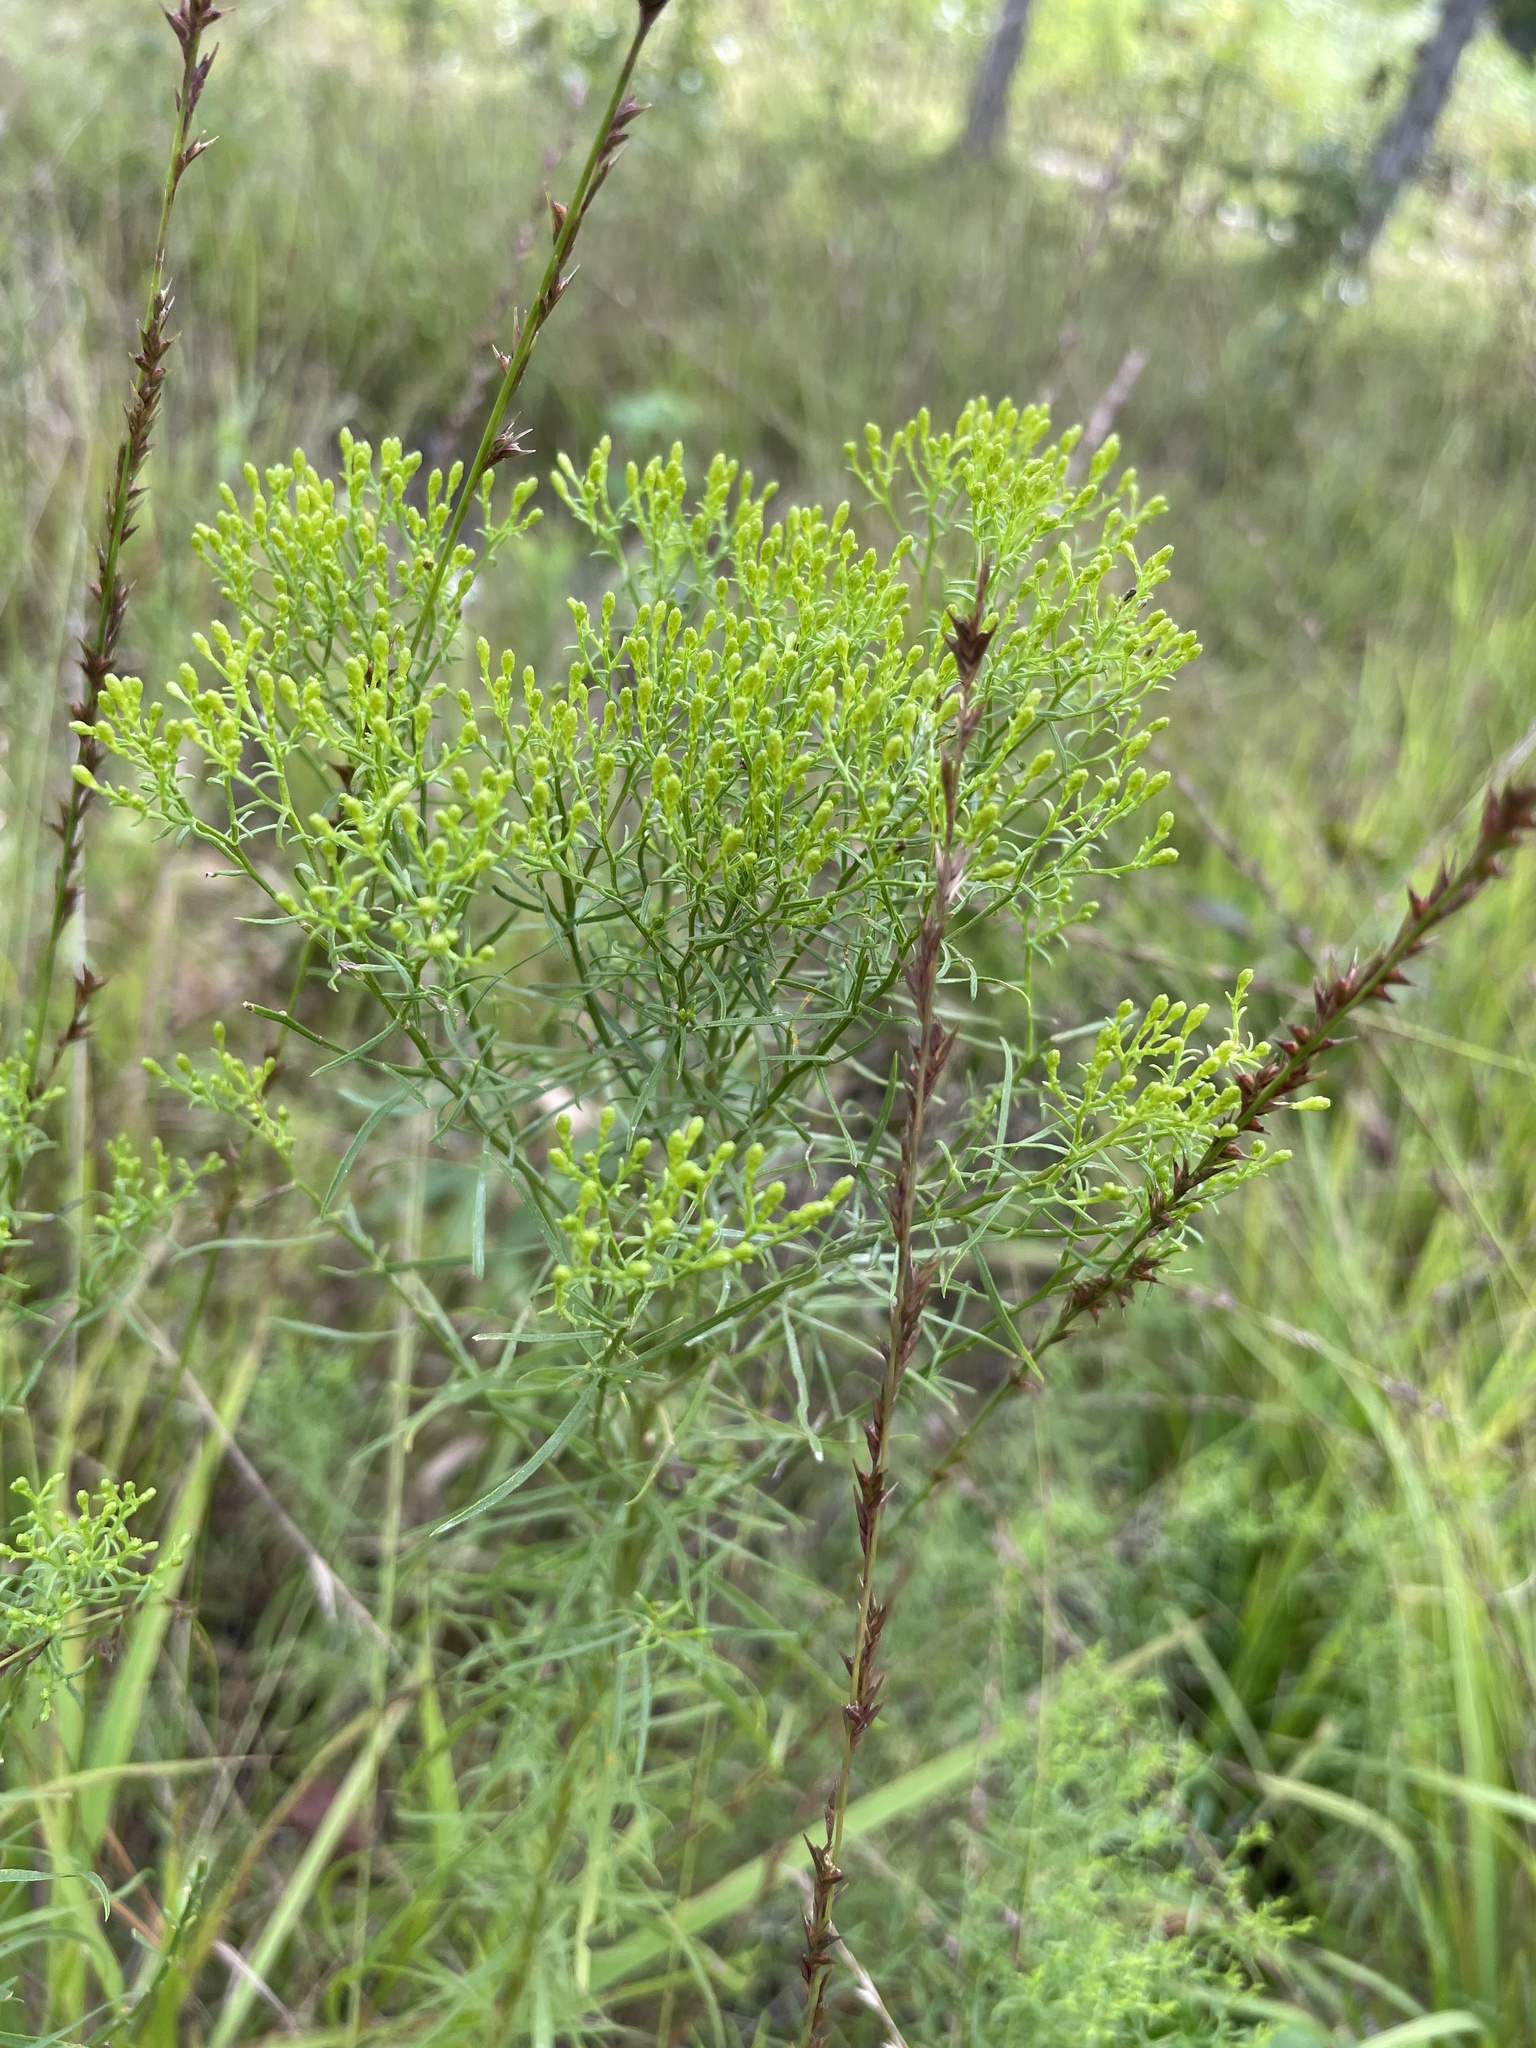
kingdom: Plantae
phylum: Tracheophyta
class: Magnoliopsida
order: Asterales
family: Asteraceae
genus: Euthamia
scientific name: Euthamia caroliniana
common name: Coastal plain goldentop
